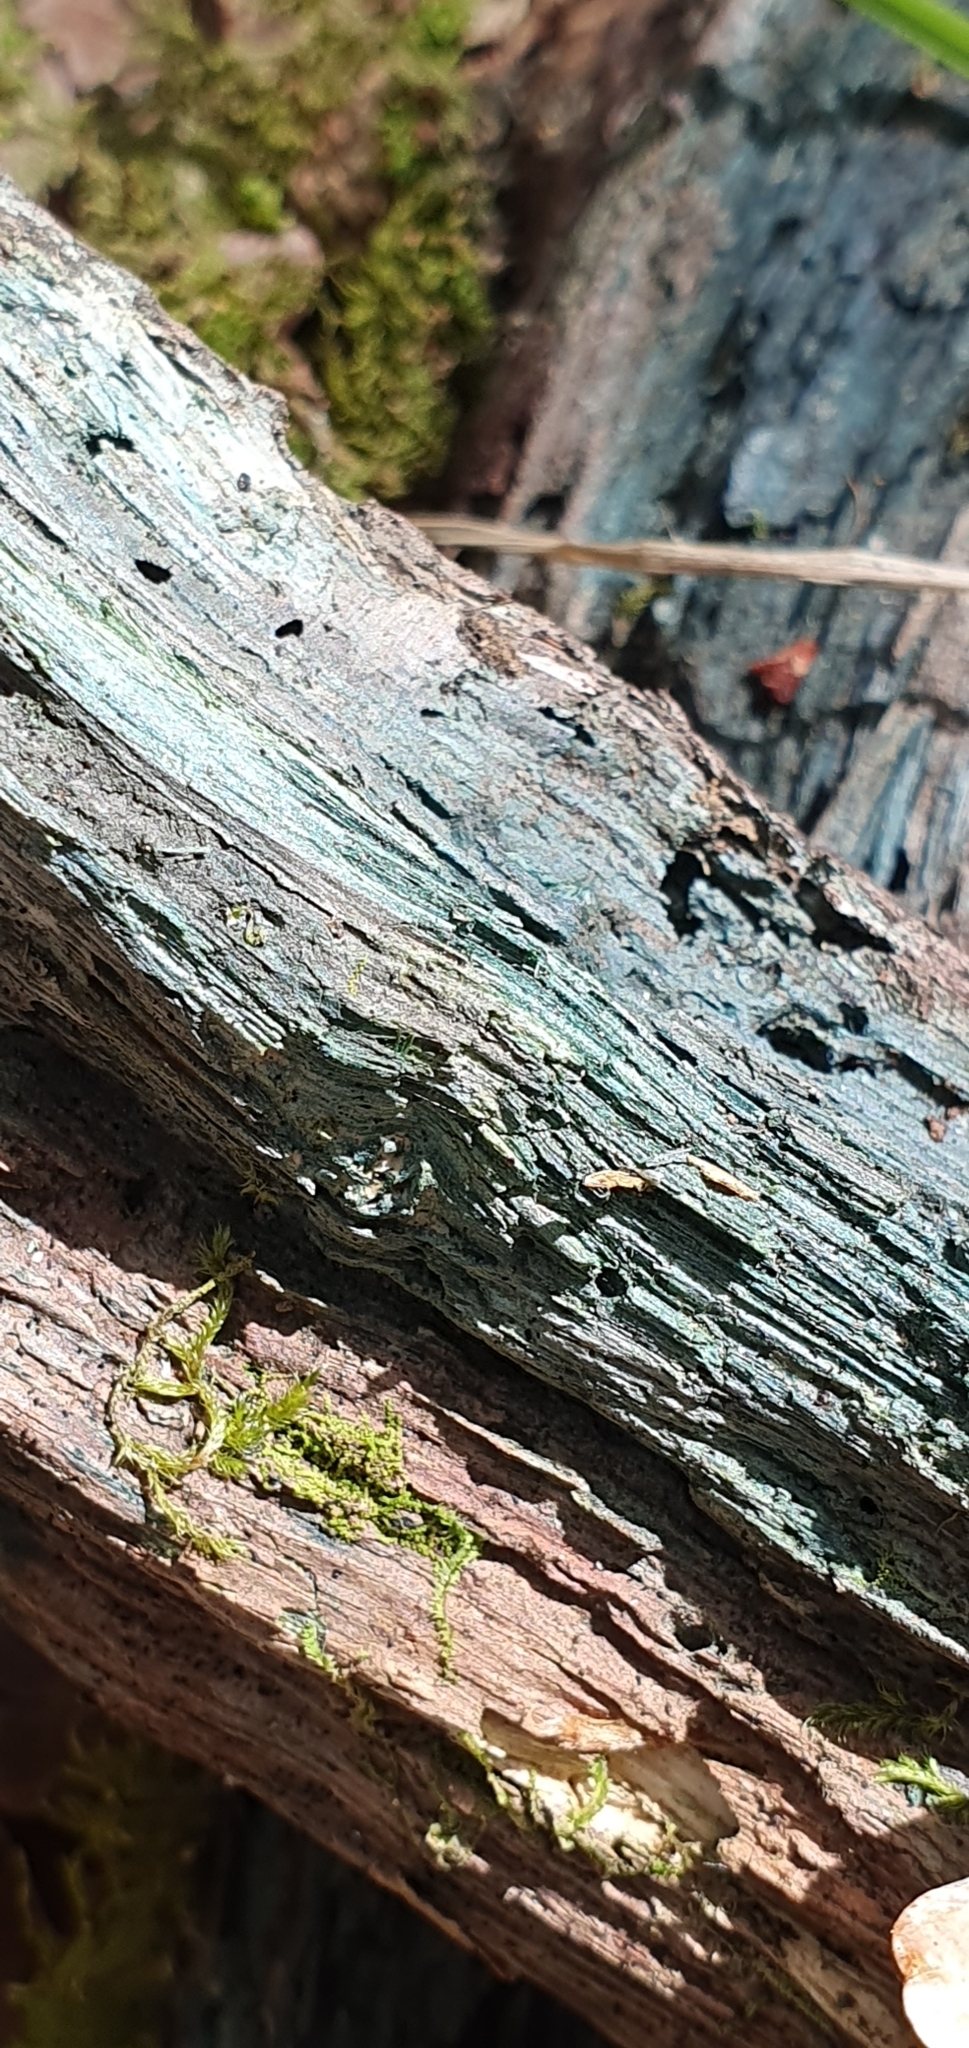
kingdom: Fungi
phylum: Ascomycota
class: Leotiomycetes
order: Helotiales
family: Chlorociboriaceae
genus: Chlorociboria
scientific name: Chlorociboria aeruginascens
